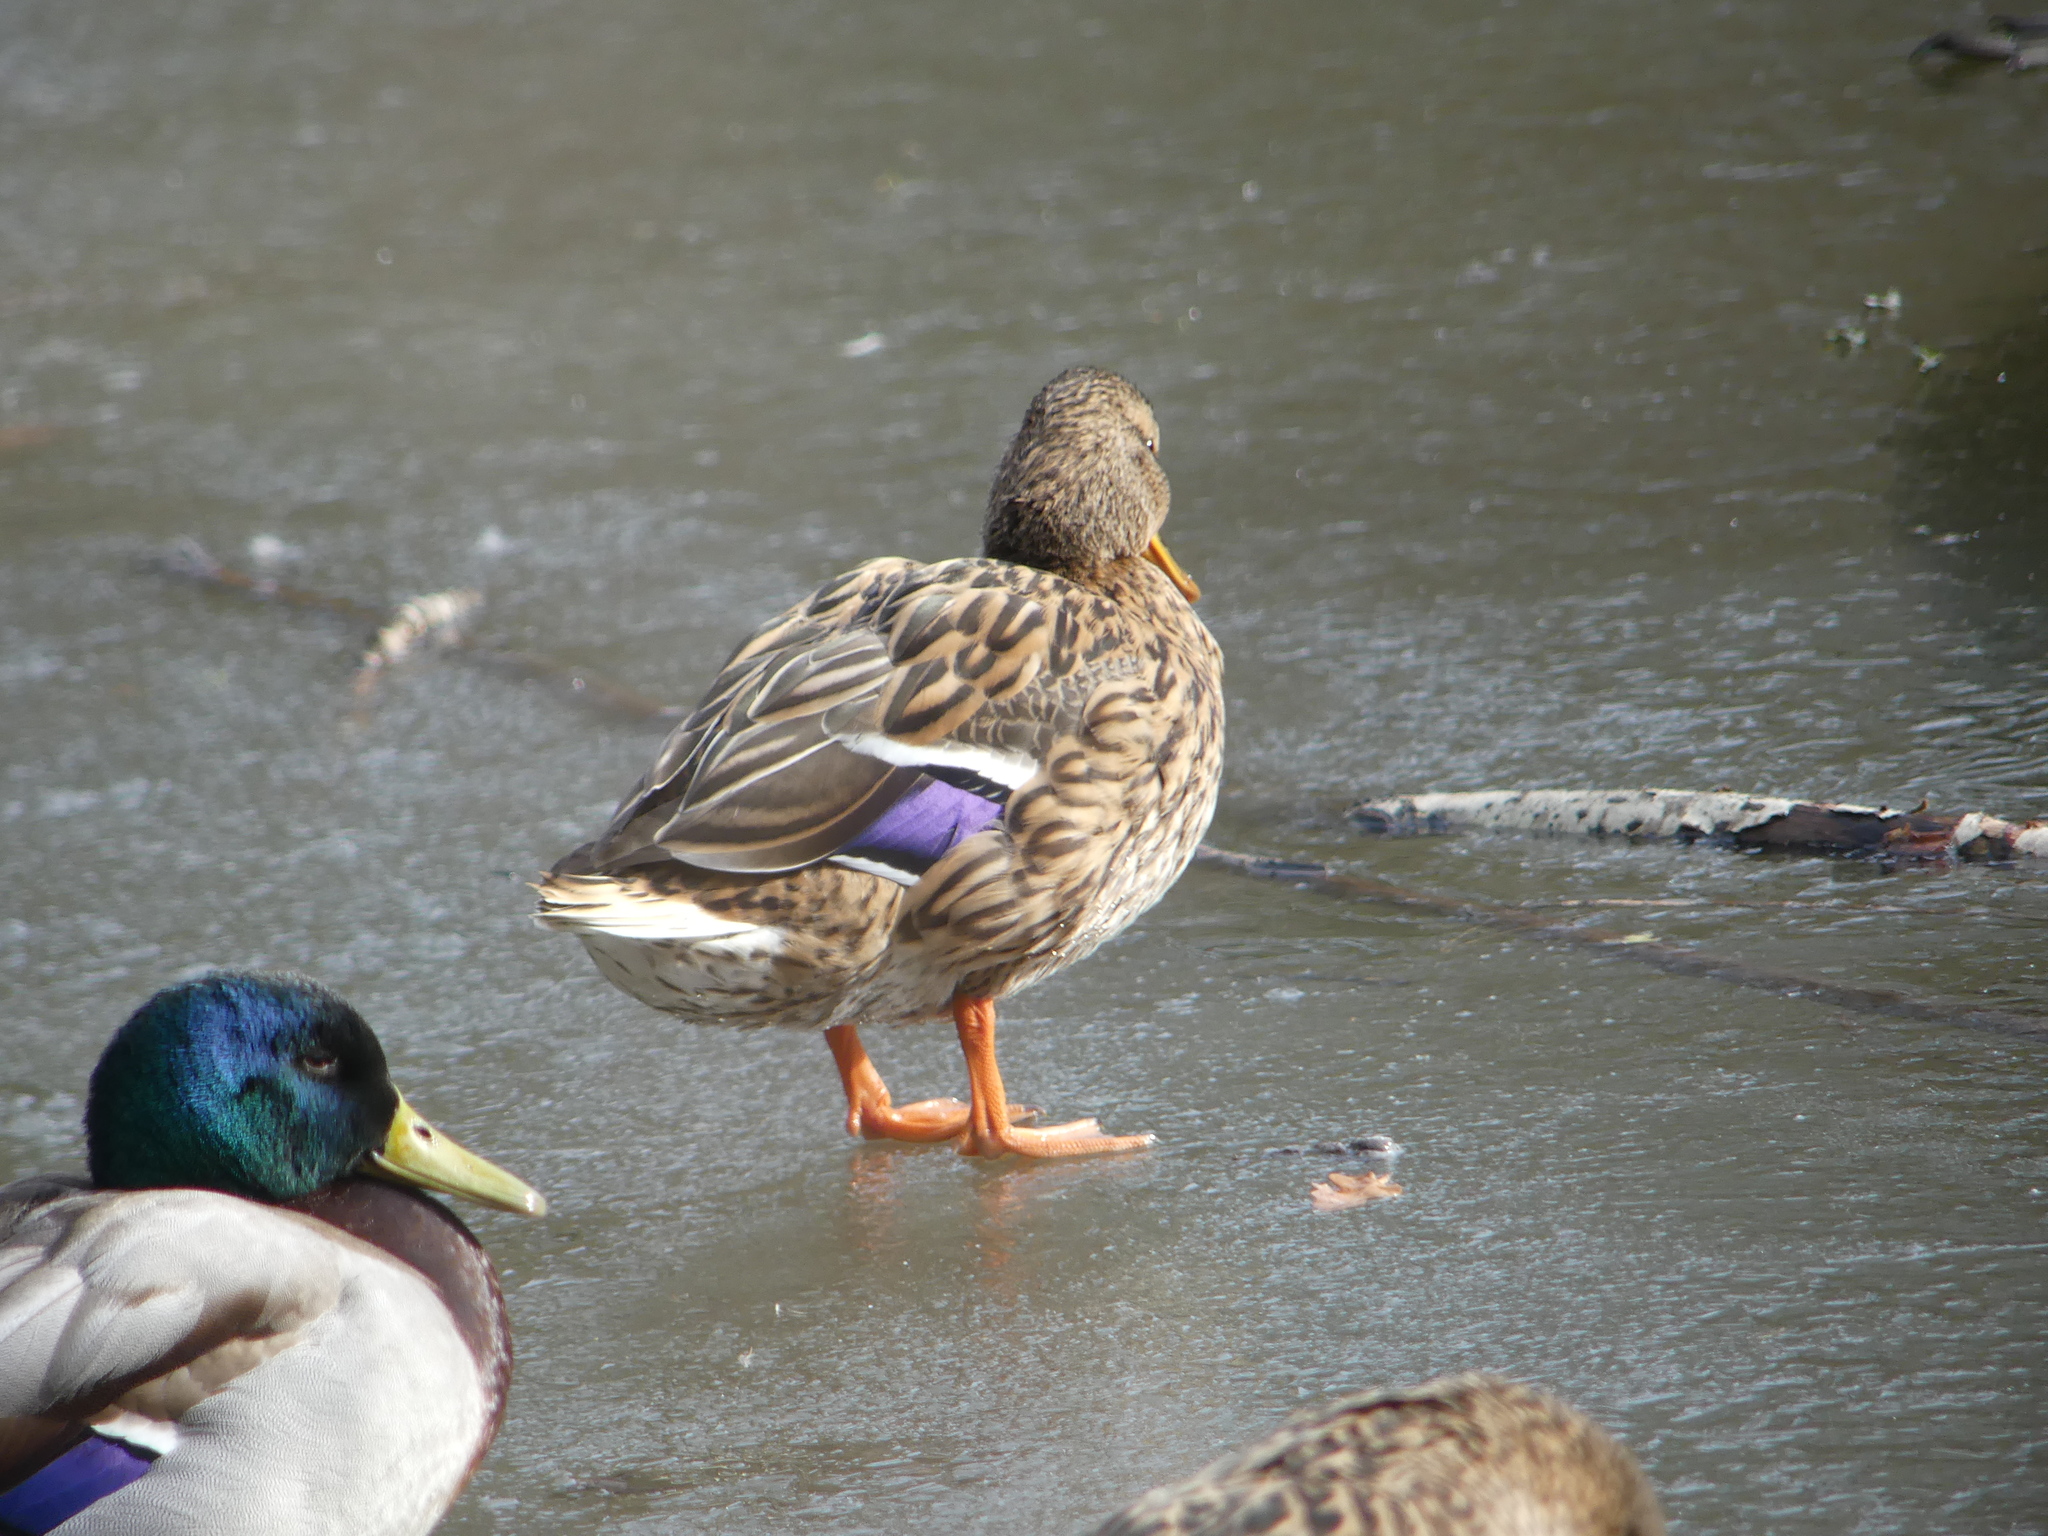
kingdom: Animalia
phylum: Chordata
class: Aves
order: Anseriformes
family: Anatidae
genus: Anas
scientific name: Anas platyrhynchos
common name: Mallard
